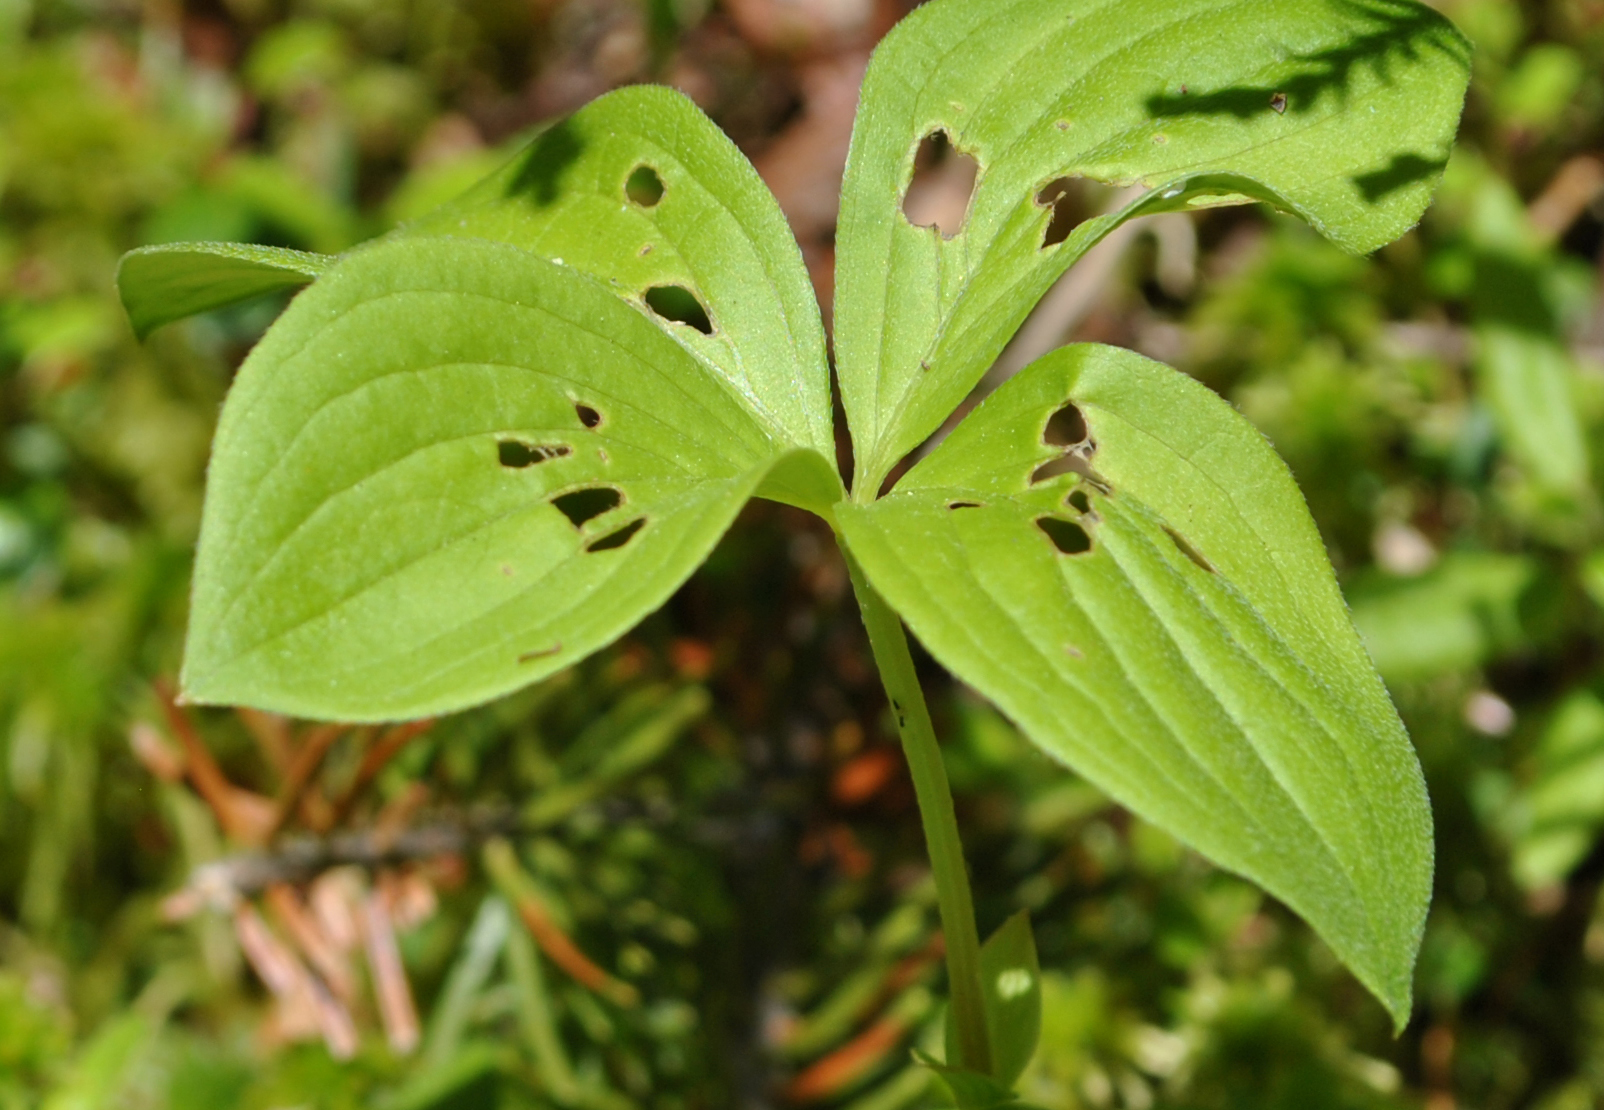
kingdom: Plantae
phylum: Tracheophyta
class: Magnoliopsida
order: Cornales
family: Cornaceae
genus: Cornus
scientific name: Cornus canadensis
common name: Creeping dogwood
